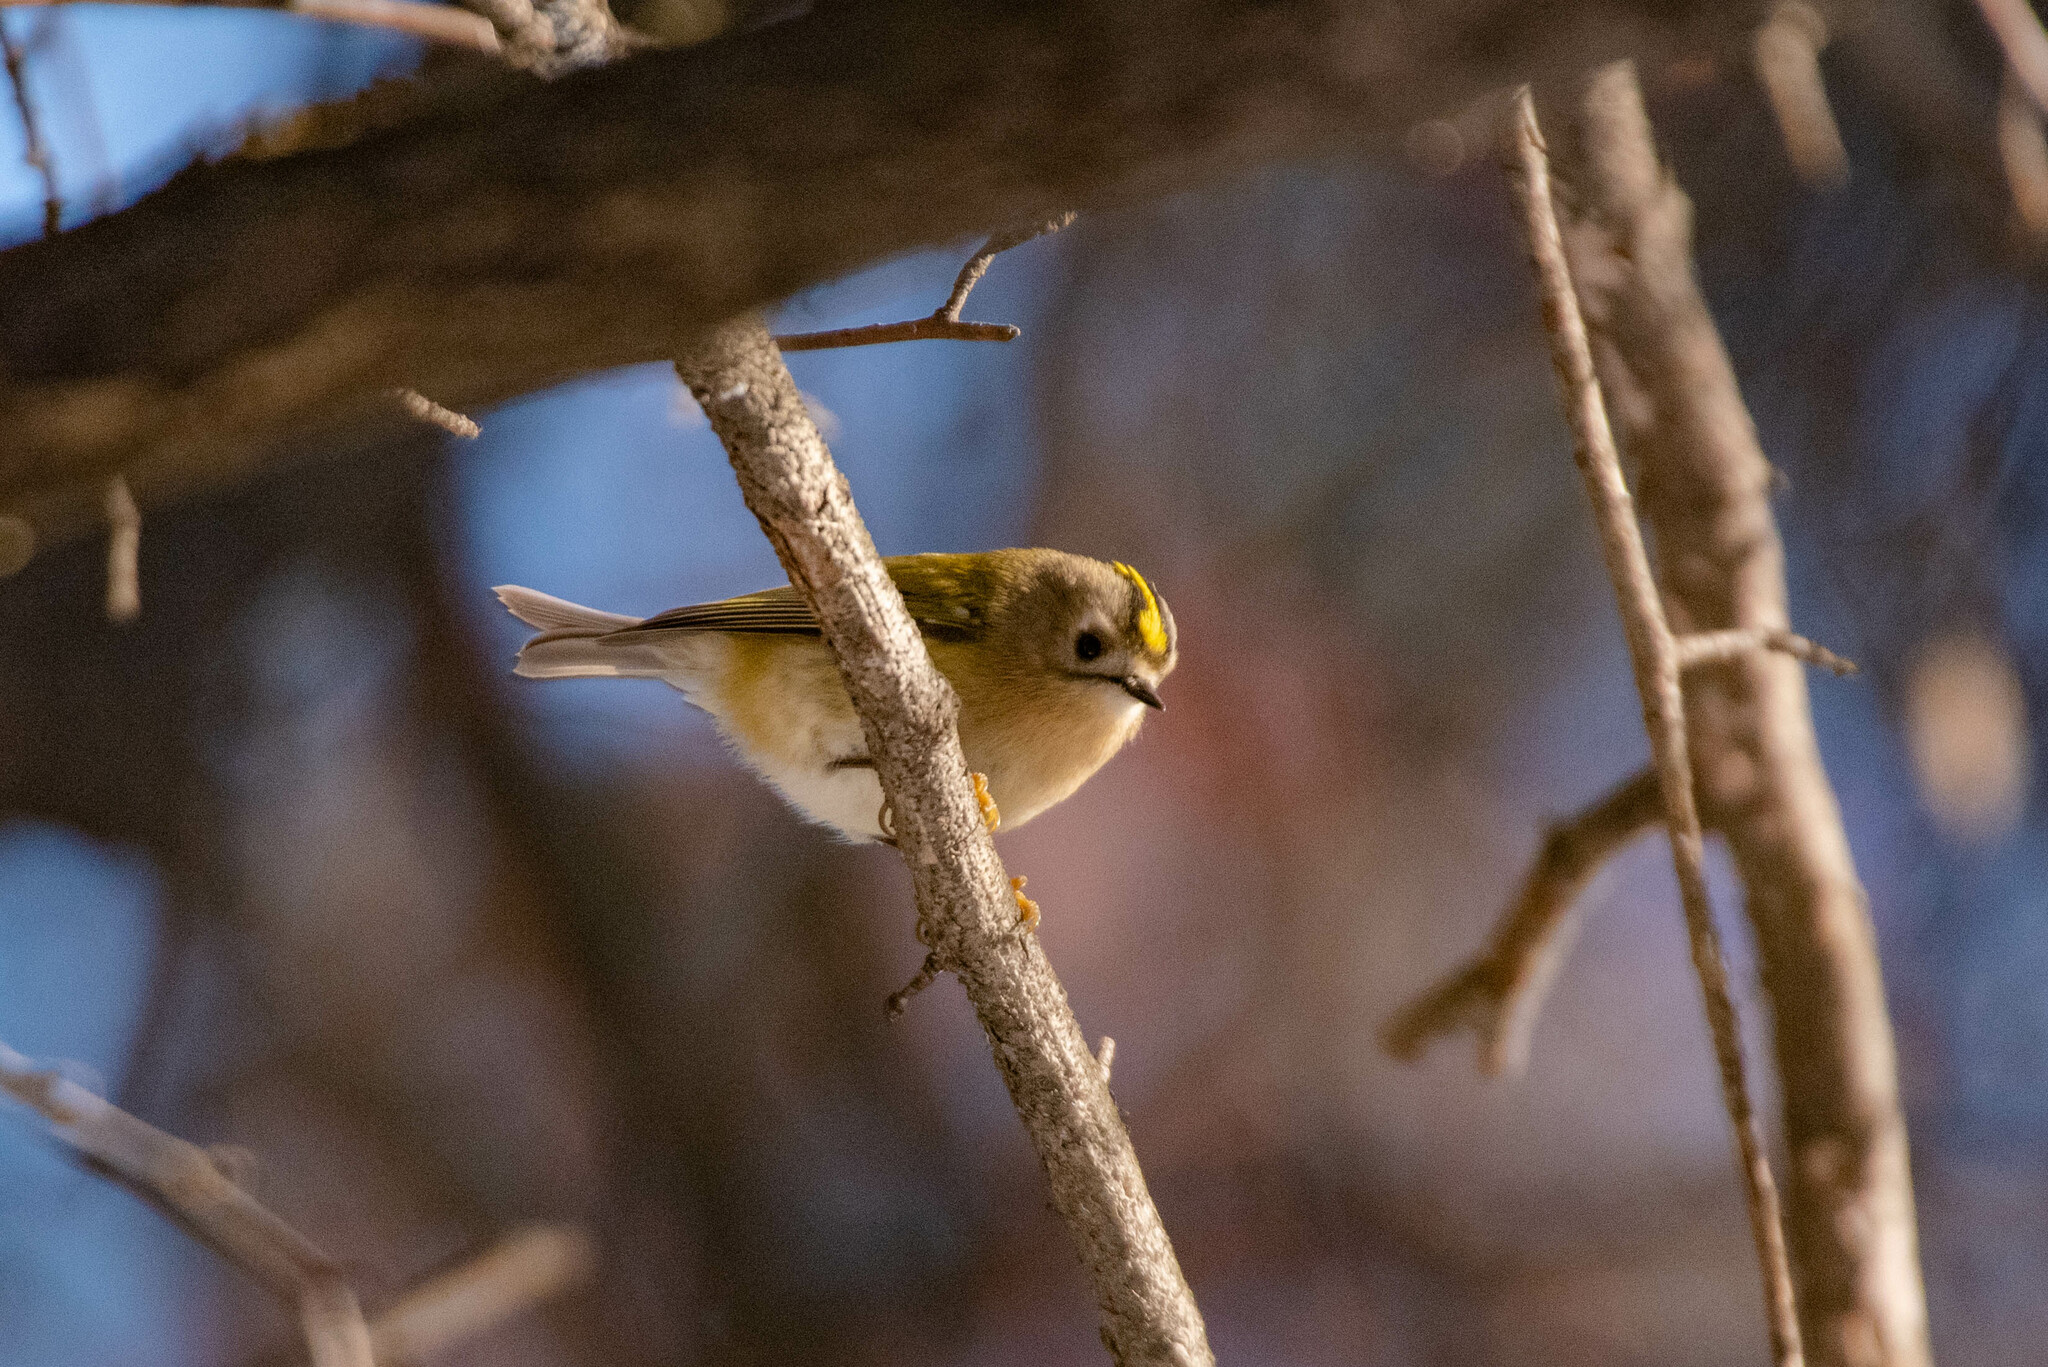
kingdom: Animalia
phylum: Chordata
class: Aves
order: Passeriformes
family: Regulidae
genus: Regulus
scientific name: Regulus regulus
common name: Goldcrest
